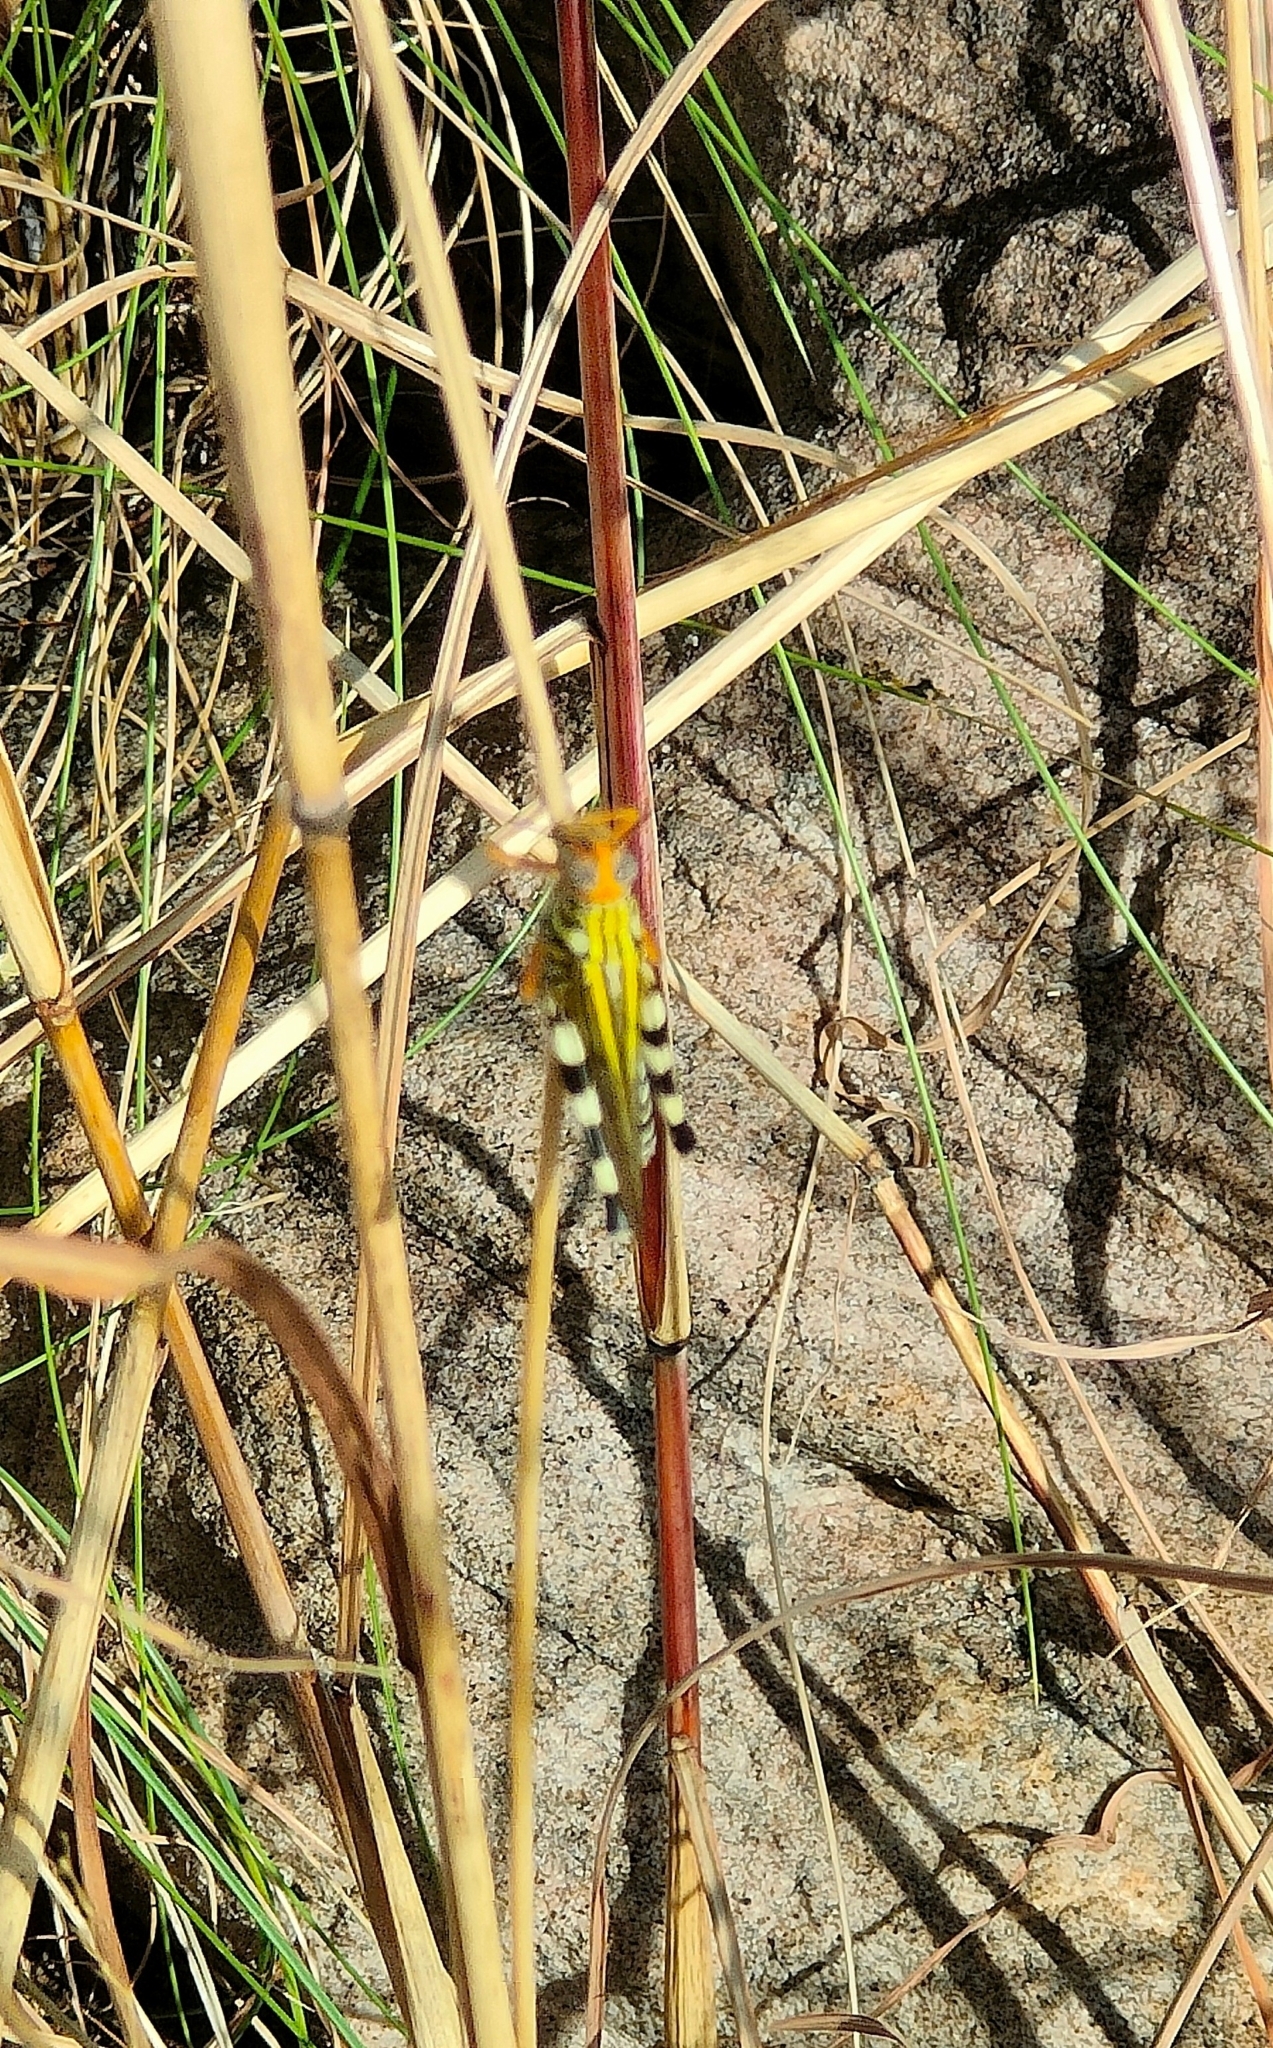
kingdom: Animalia
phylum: Arthropoda
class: Insecta
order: Orthoptera
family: Acrididae
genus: Zebratula
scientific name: Zebratula flavonigra
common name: Zebra grasshopper
